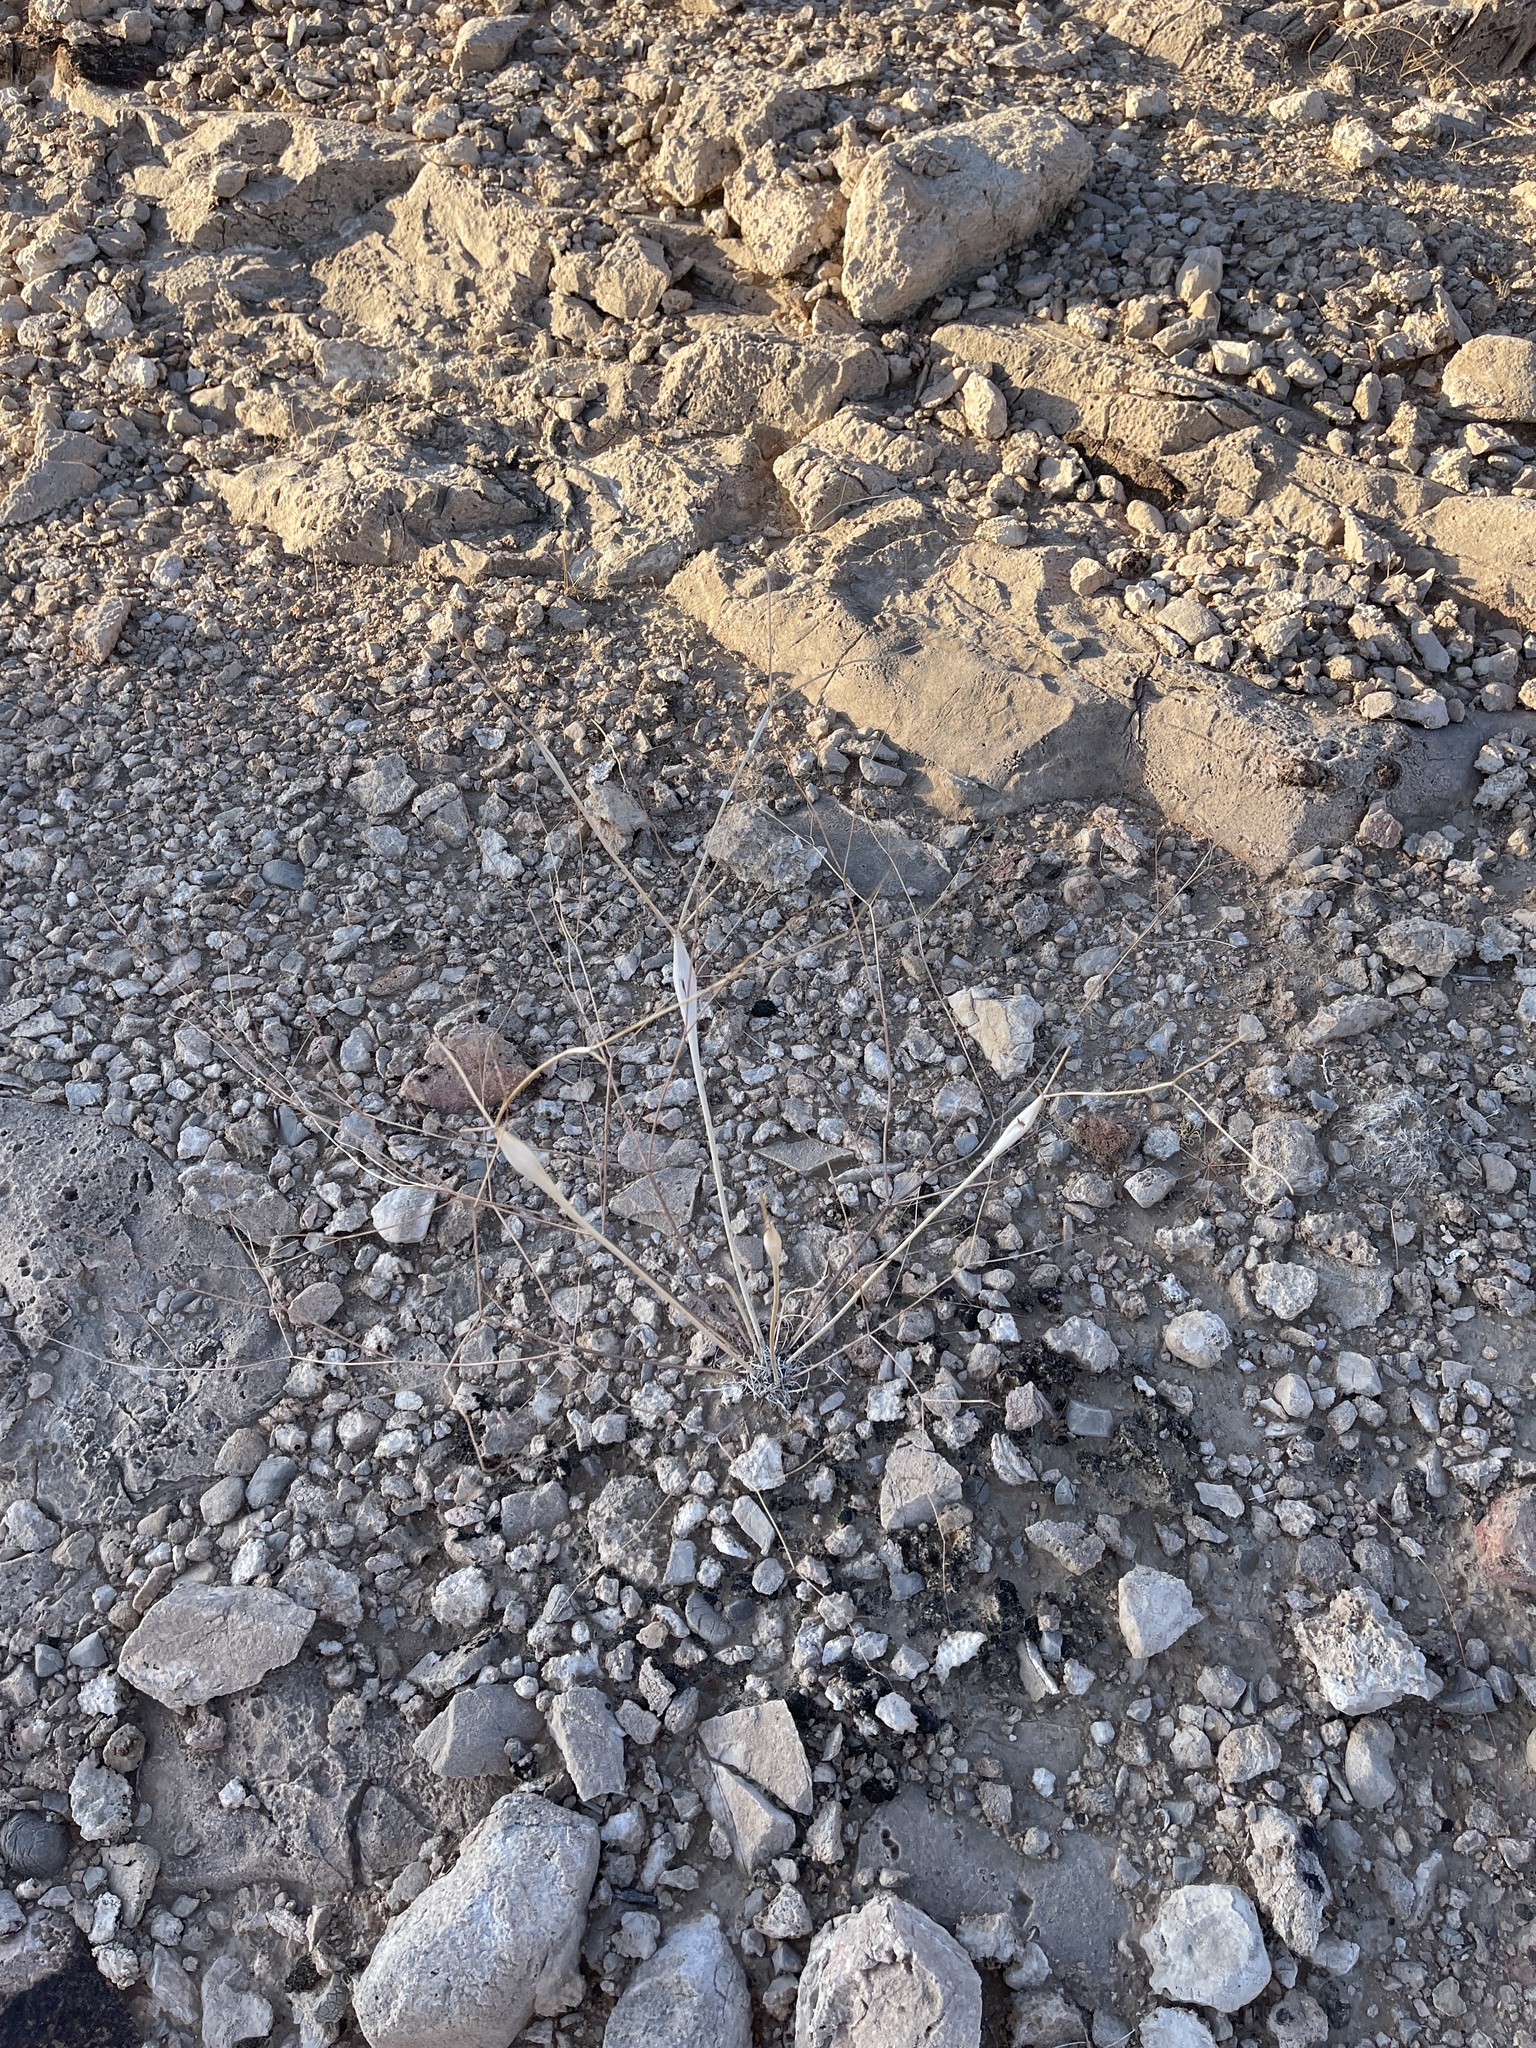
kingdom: Plantae
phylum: Tracheophyta
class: Magnoliopsida
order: Caryophyllales
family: Polygonaceae
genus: Eriogonum
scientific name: Eriogonum inflatum
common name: Desert trumpet
